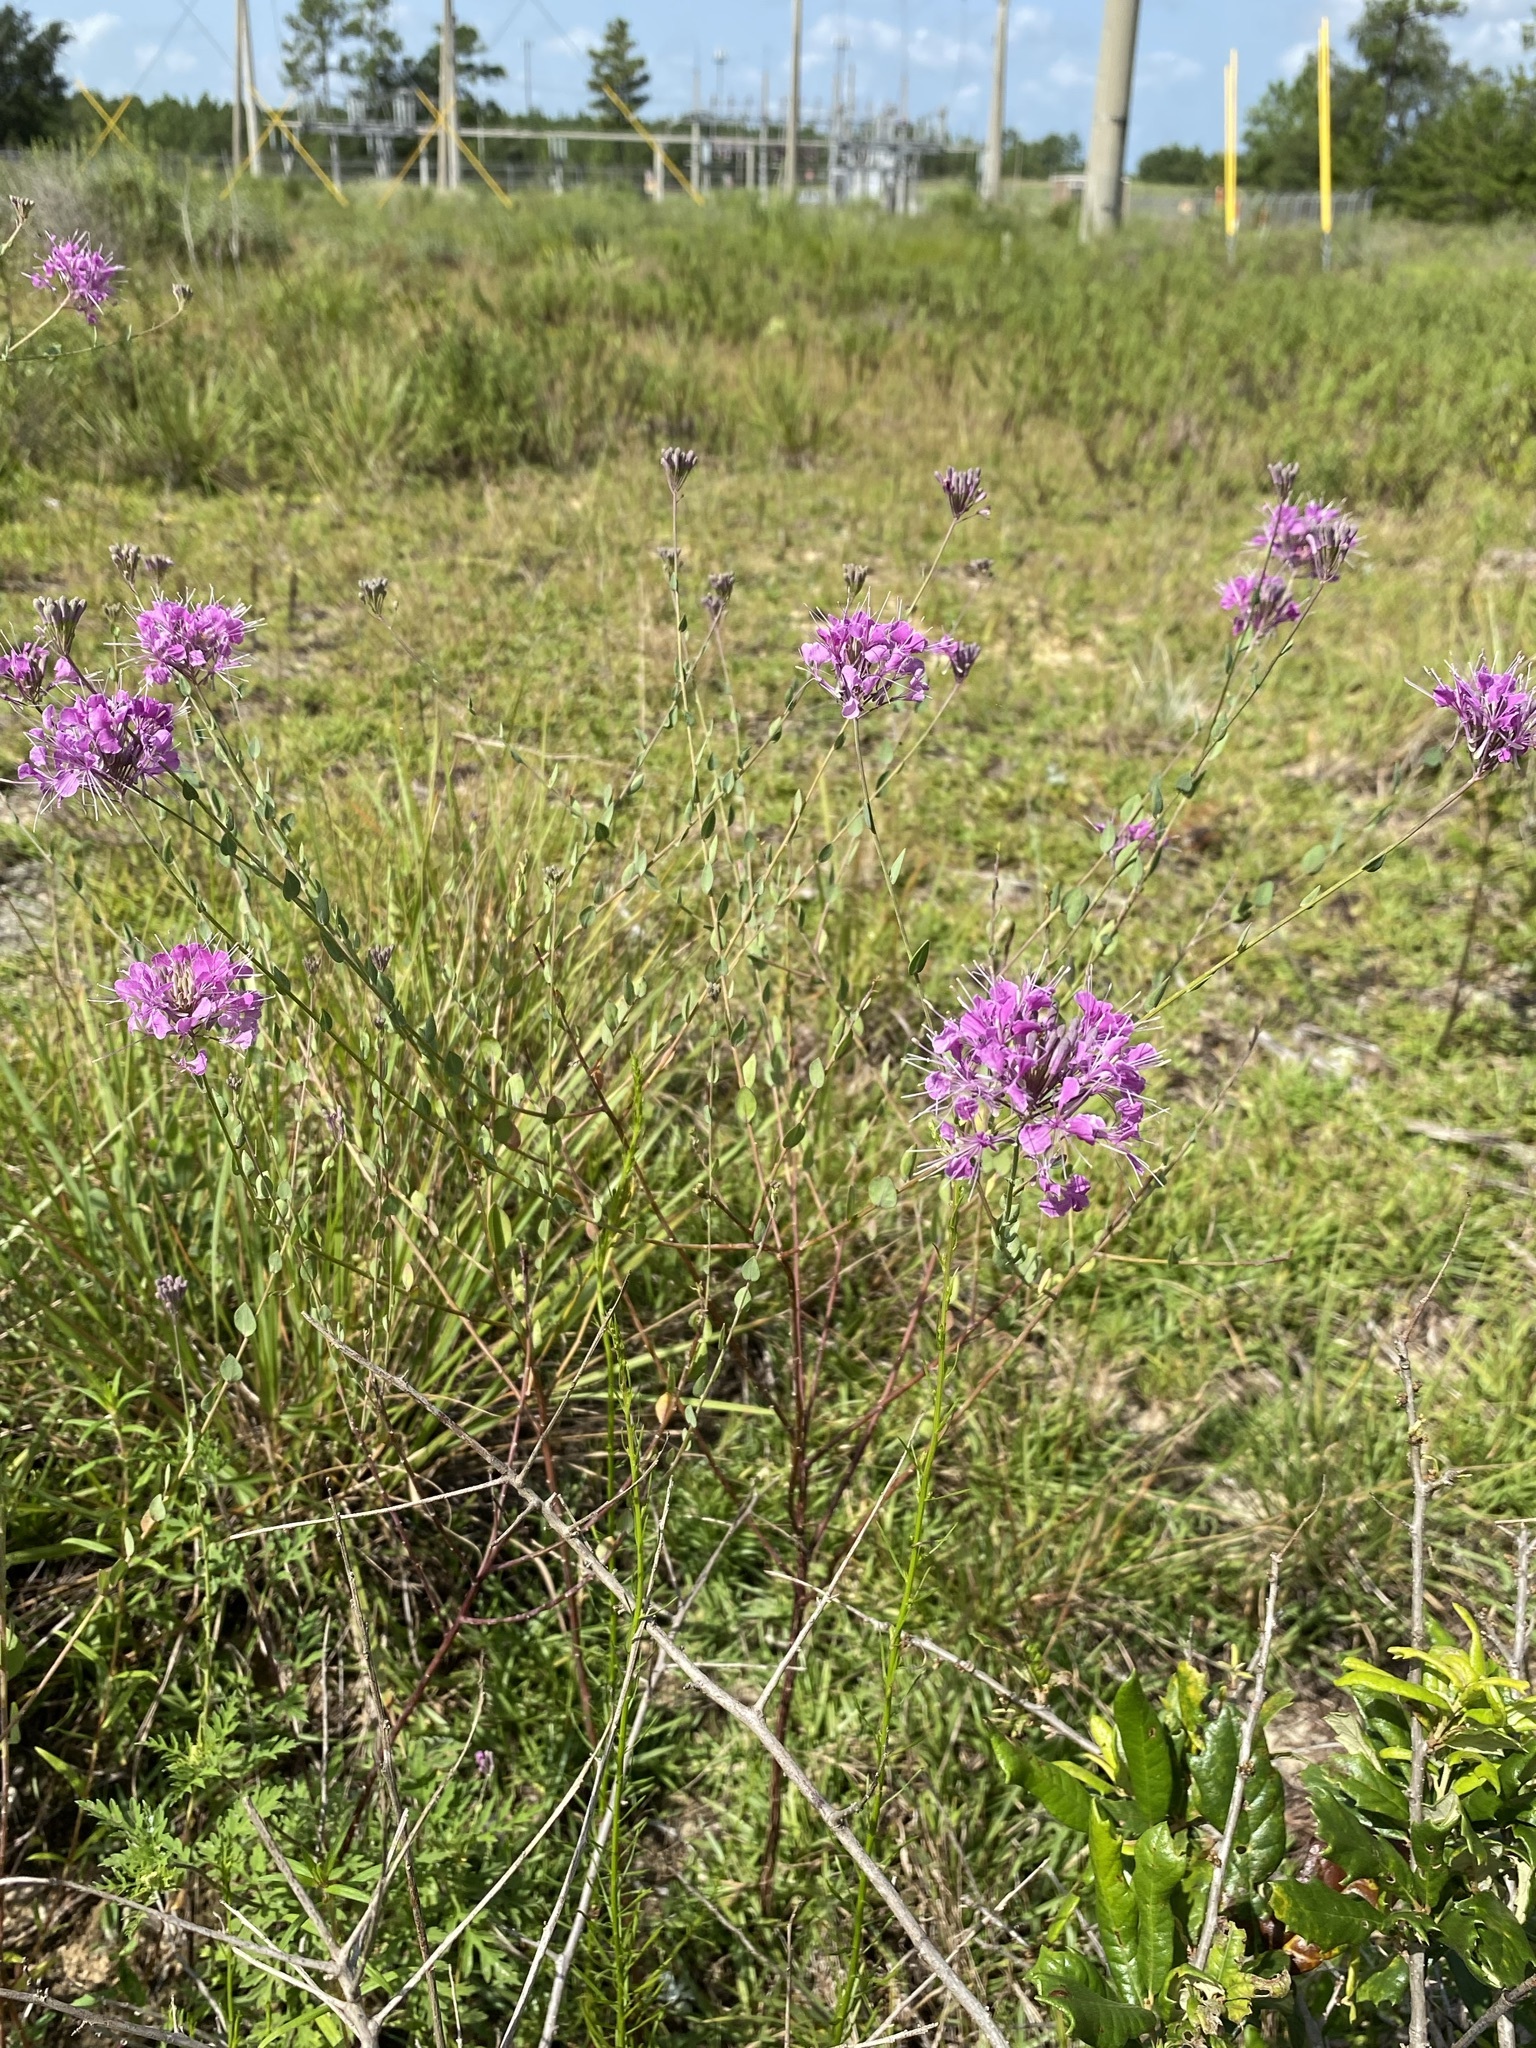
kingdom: Plantae
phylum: Tracheophyta
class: Magnoliopsida
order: Brassicales
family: Brassicaceae
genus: Warea
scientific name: Warea sessilifolia
